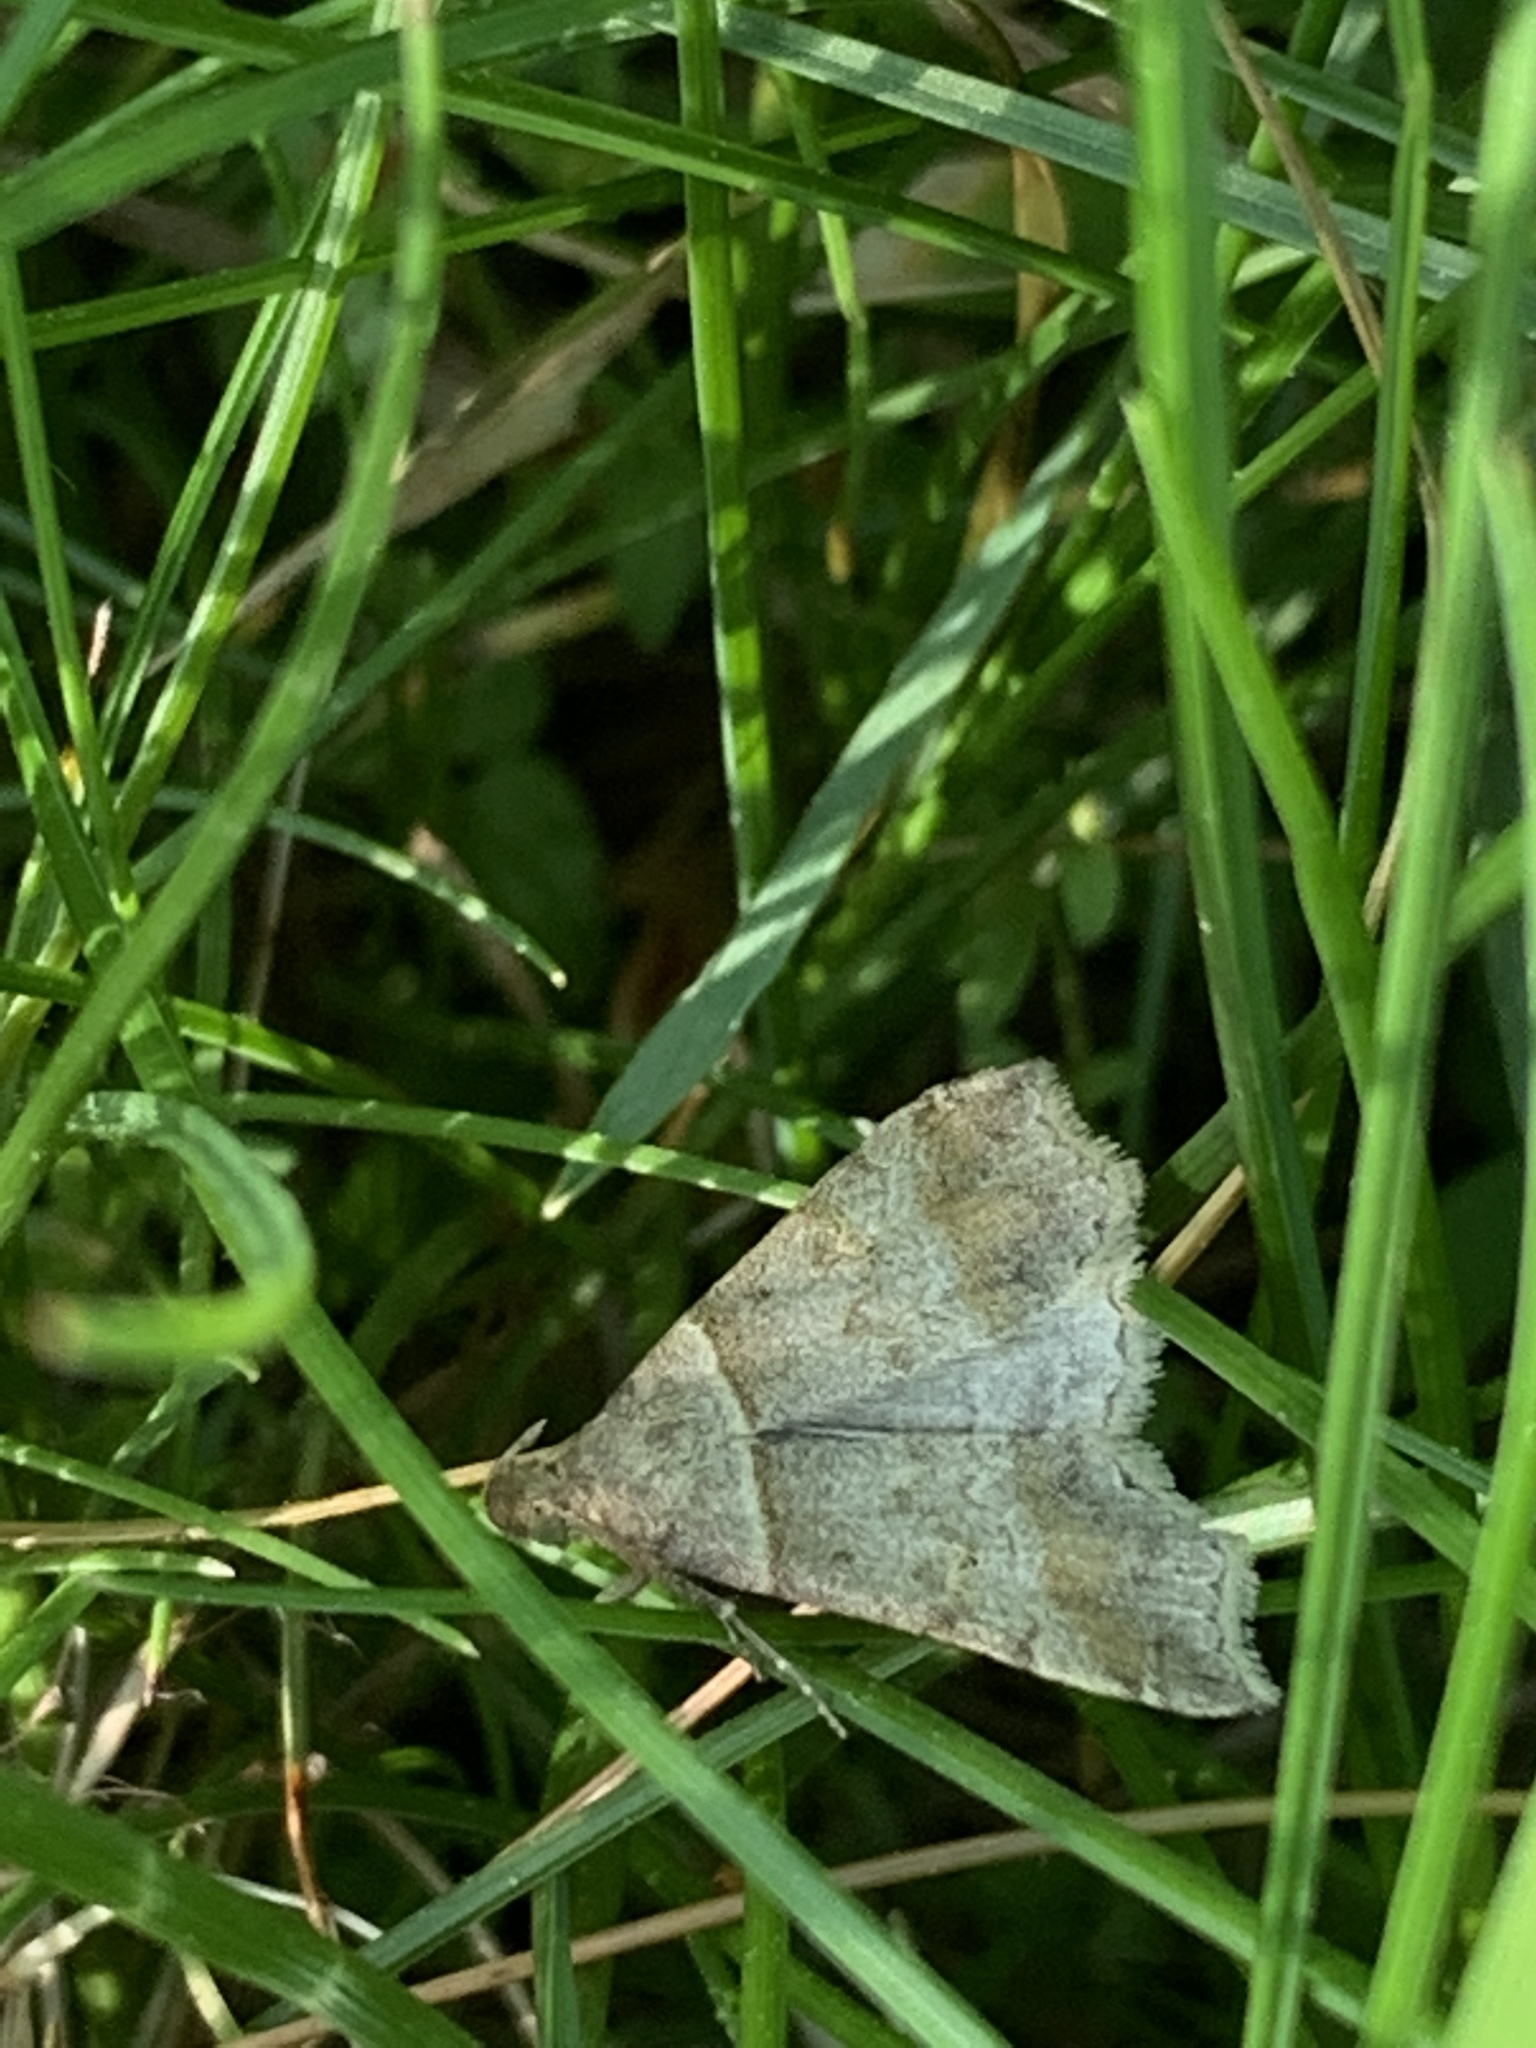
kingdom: Animalia
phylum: Arthropoda
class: Insecta
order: Lepidoptera
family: Erebidae
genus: Phaeolita
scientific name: Phaeolita pyramusalis
